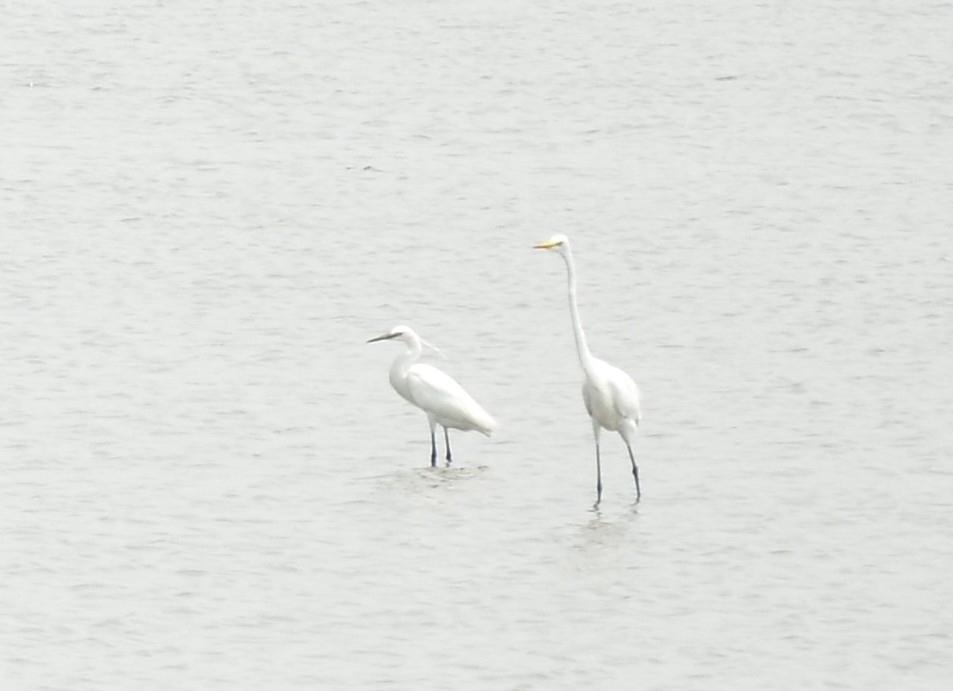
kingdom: Animalia
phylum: Chordata
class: Aves
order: Pelecaniformes
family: Ardeidae
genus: Ardea
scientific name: Ardea alba
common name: Great egret
